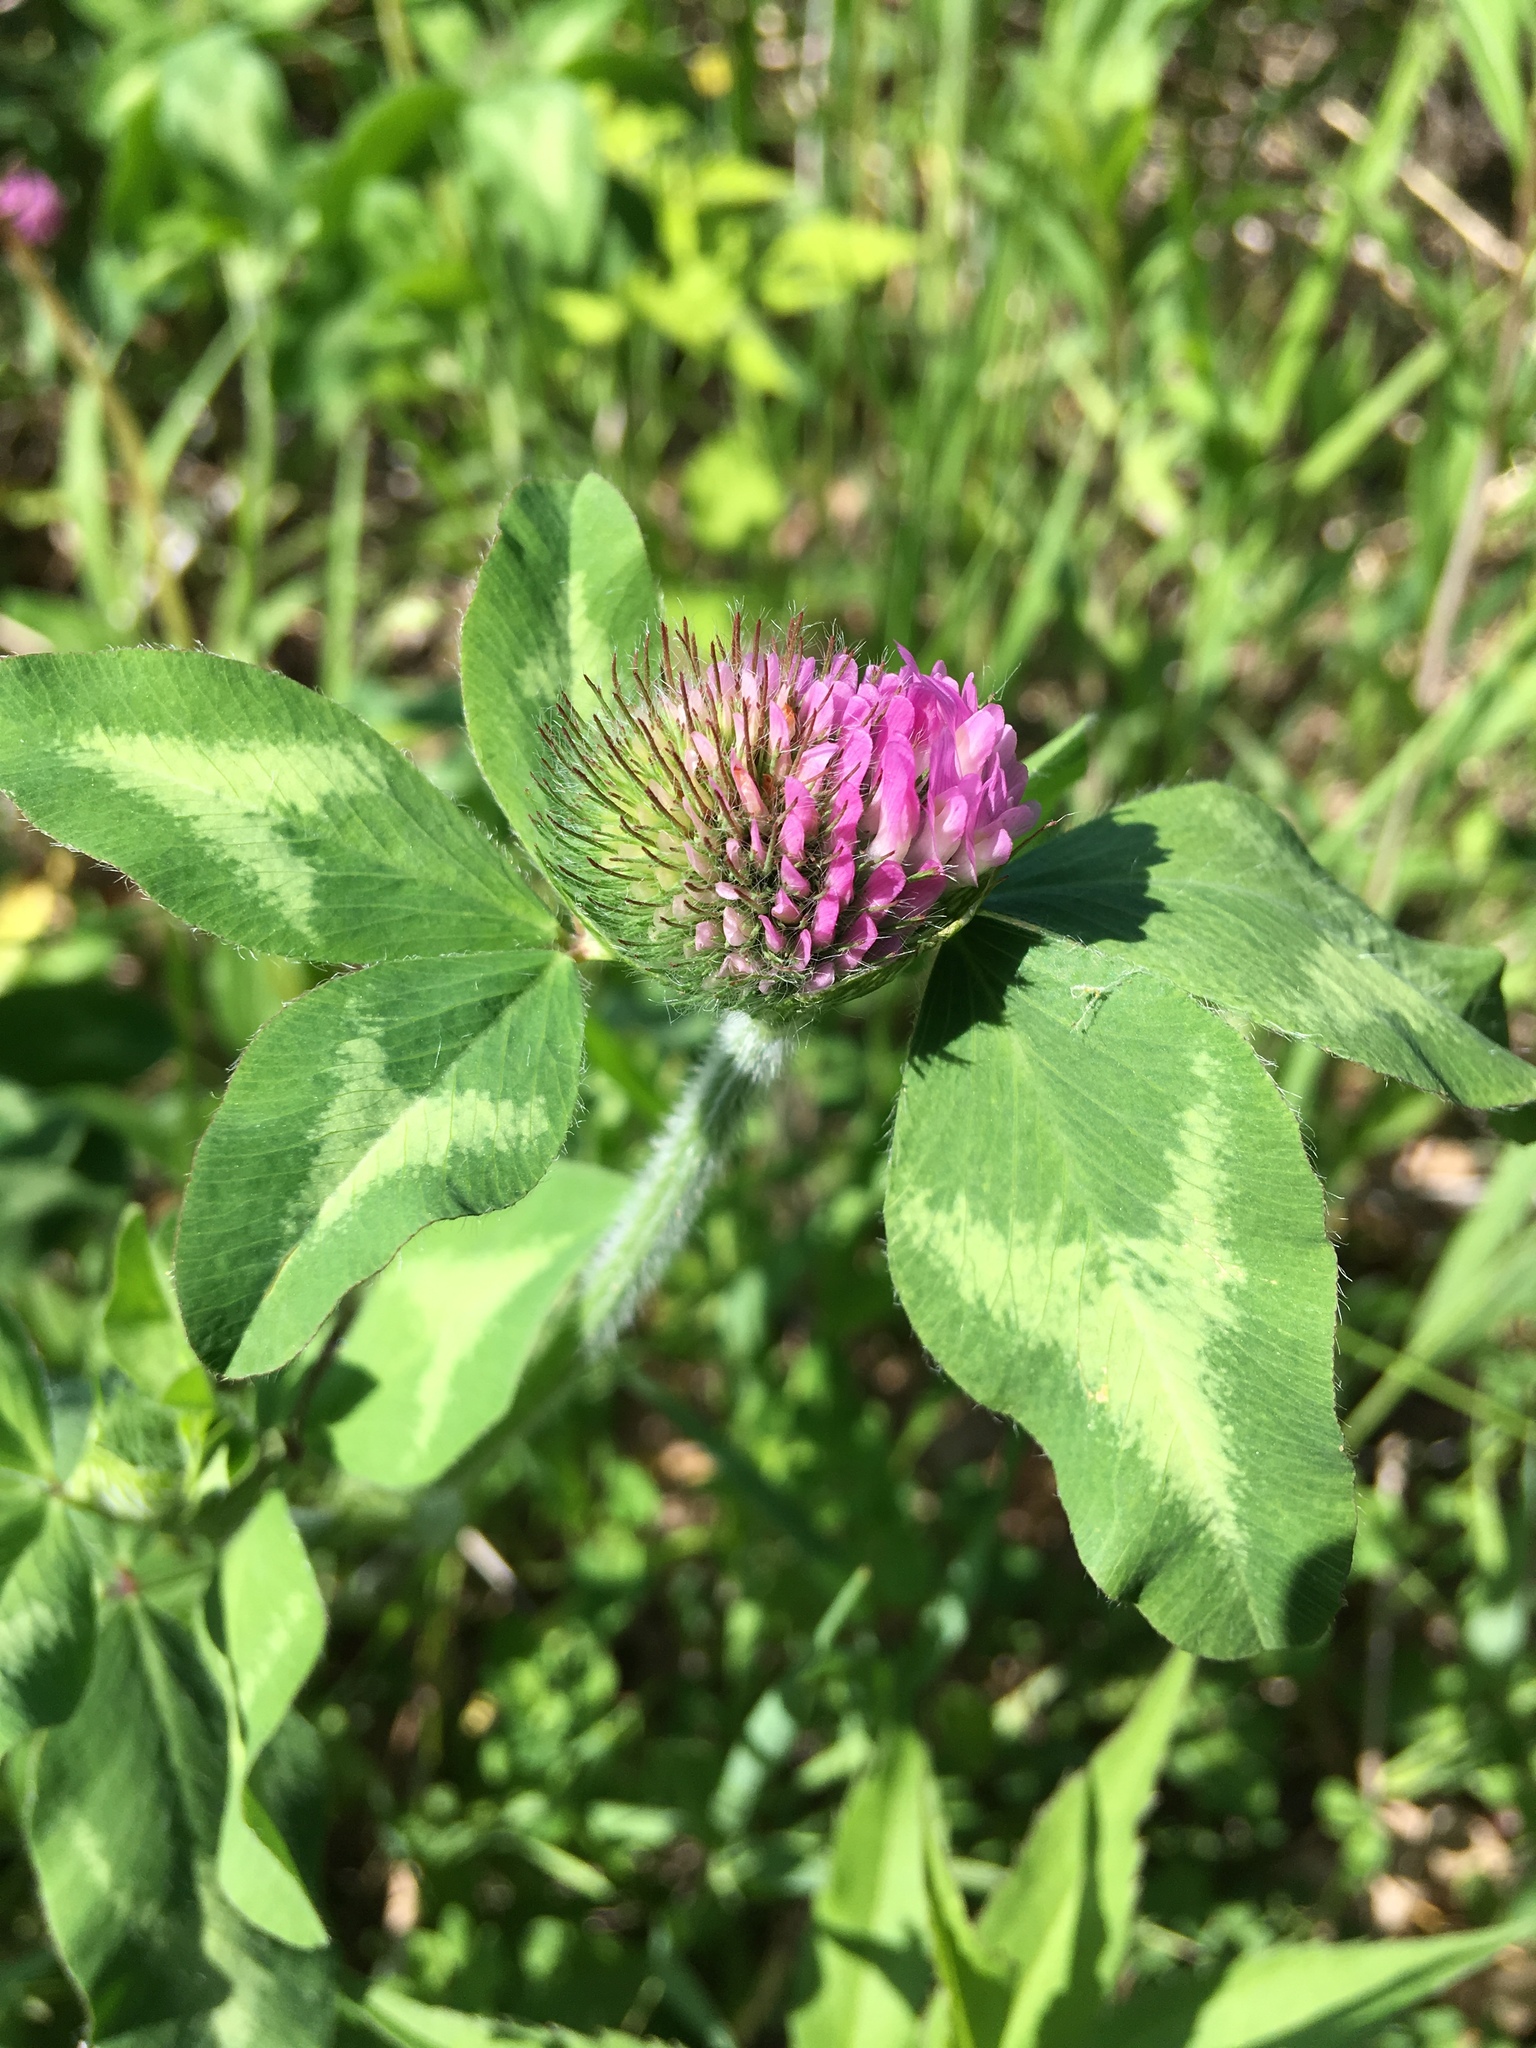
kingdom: Plantae
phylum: Tracheophyta
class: Magnoliopsida
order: Fabales
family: Fabaceae
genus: Trifolium
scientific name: Trifolium pratense
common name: Red clover
